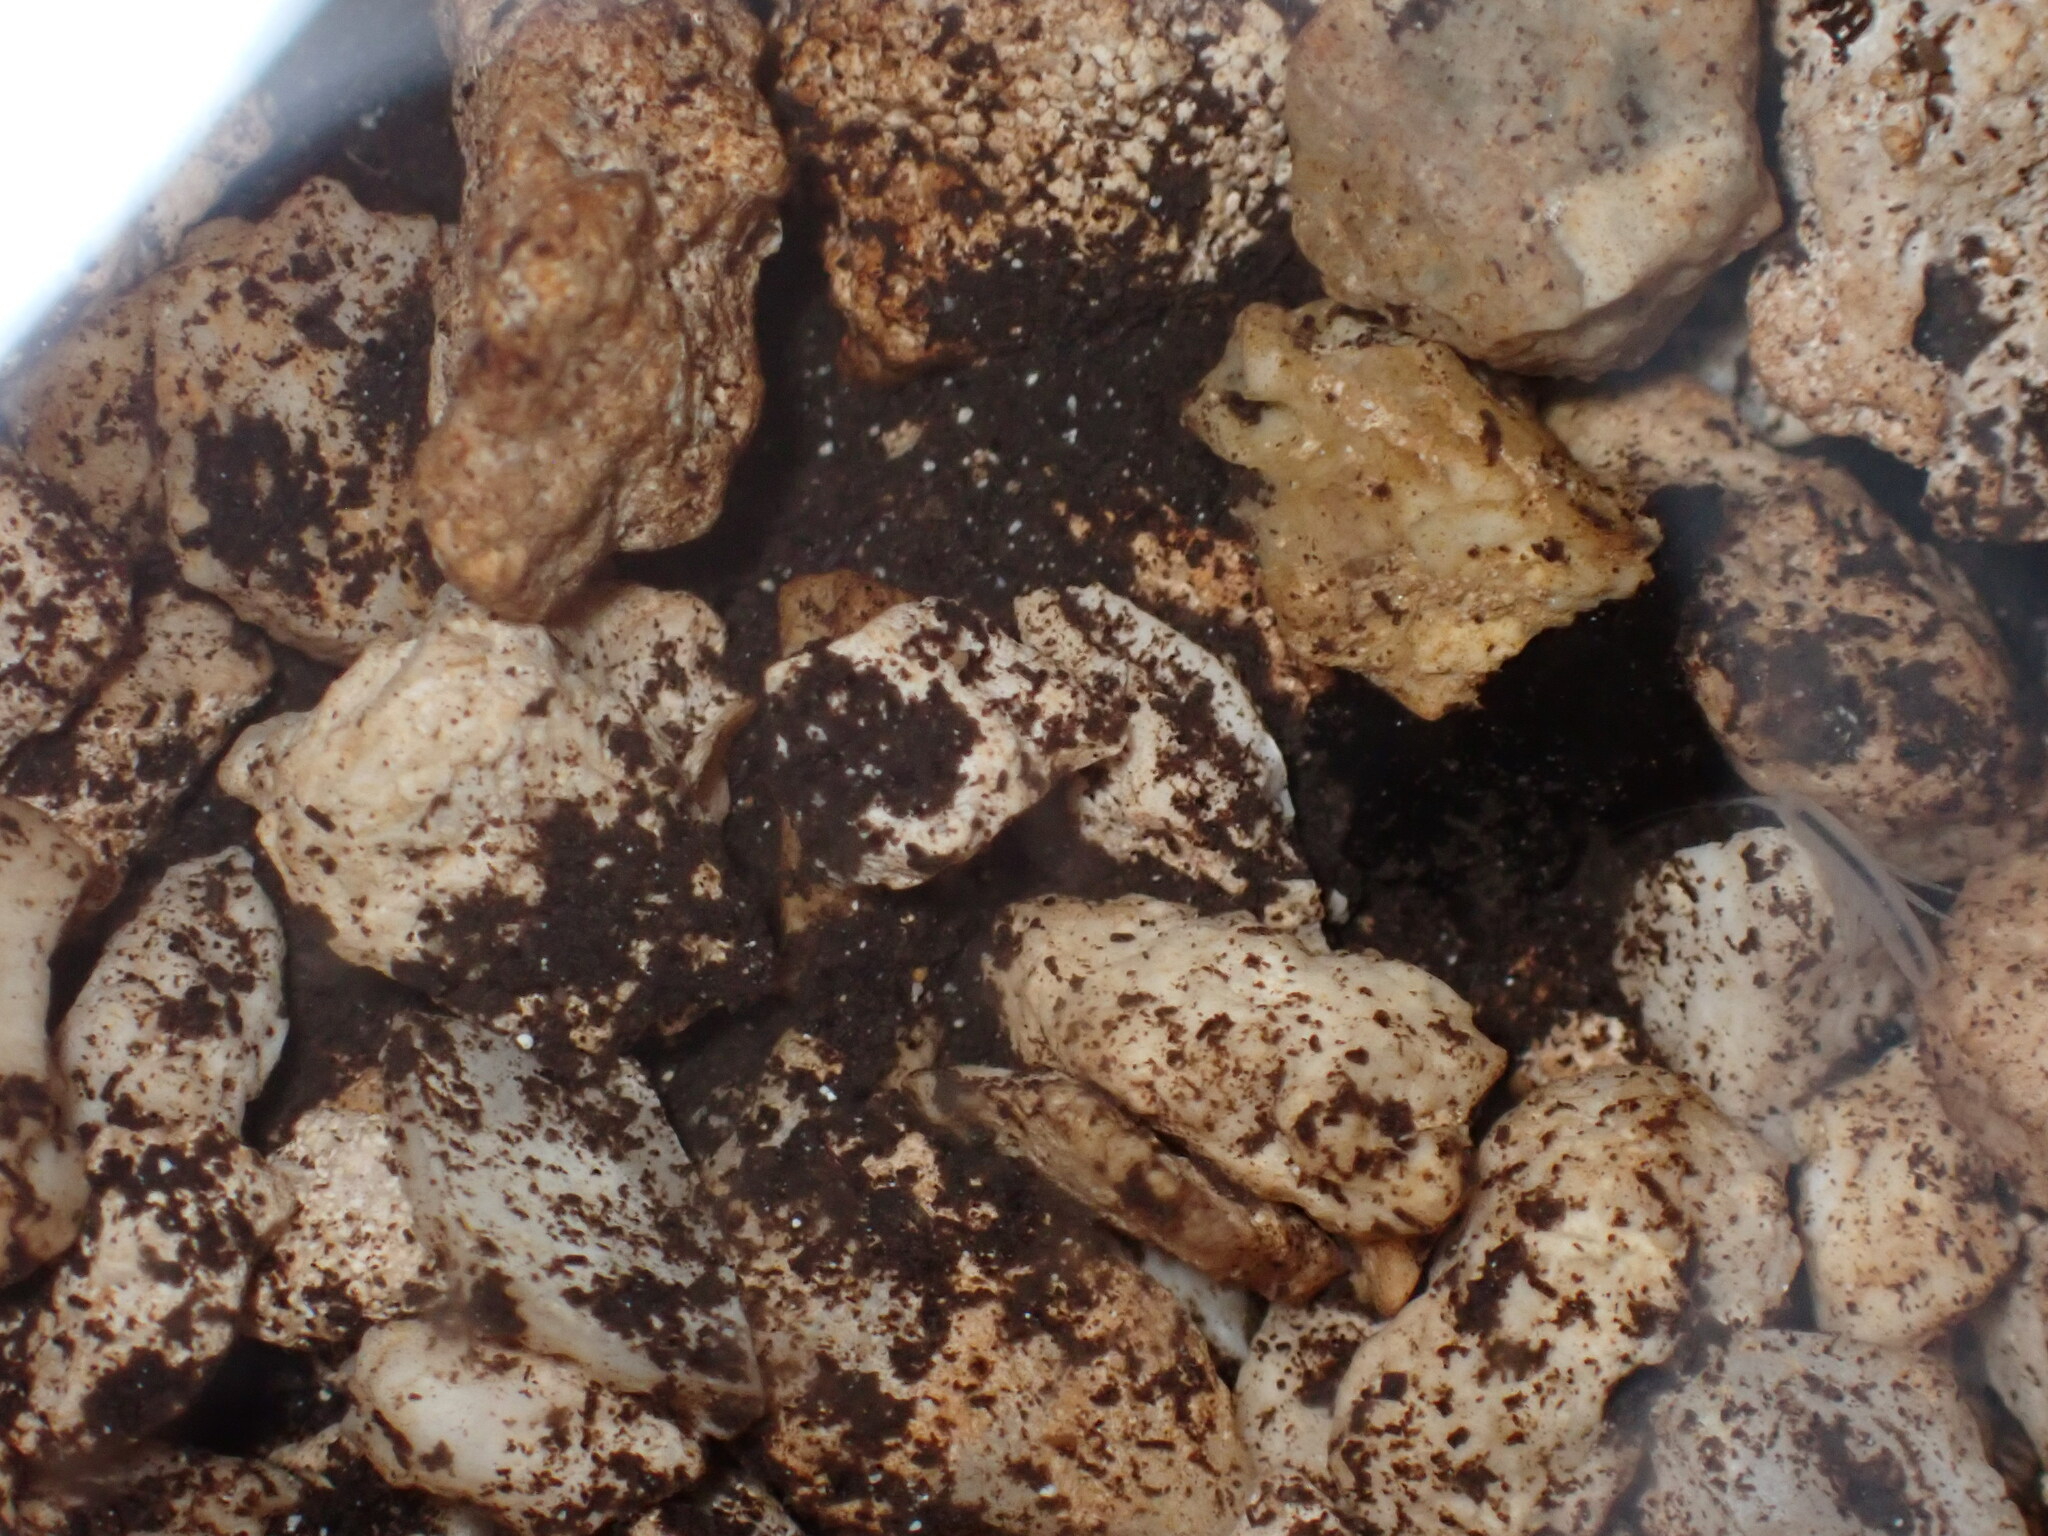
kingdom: Animalia
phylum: Arthropoda
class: Malacostraca
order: Amphipoda
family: Hadziidae
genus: Bahadzia
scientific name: Bahadzia caymanensis
